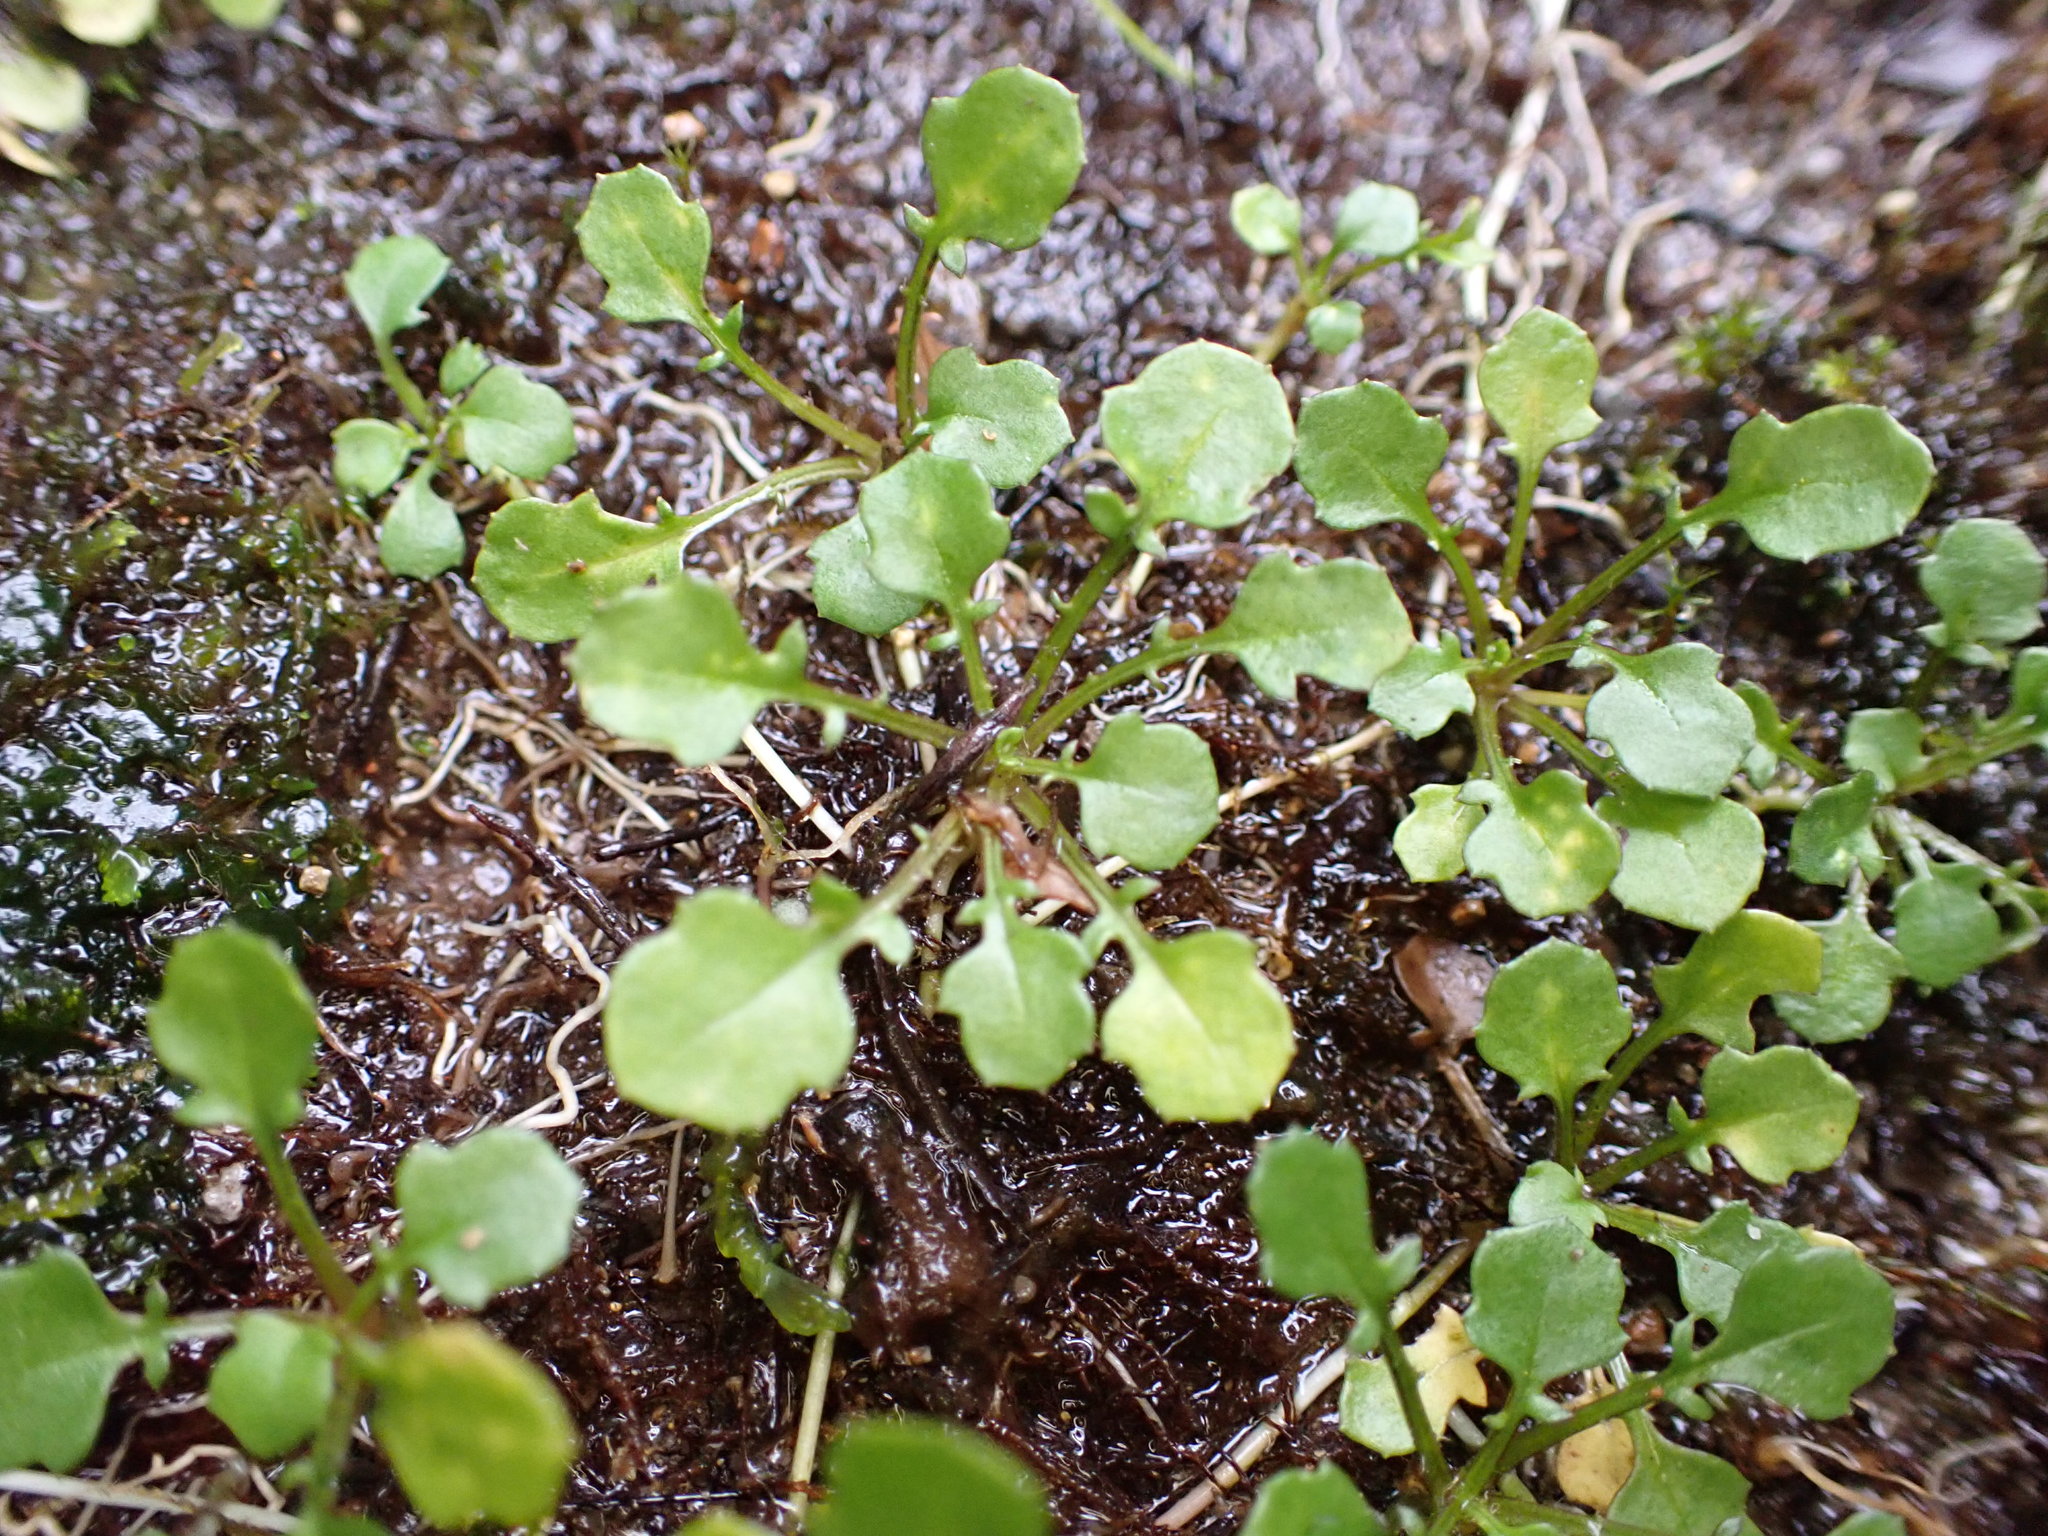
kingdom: Plantae
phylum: Tracheophyta
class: Magnoliopsida
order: Asterales
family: Asteraceae
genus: Lagenophora
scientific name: Lagenophora pumila
